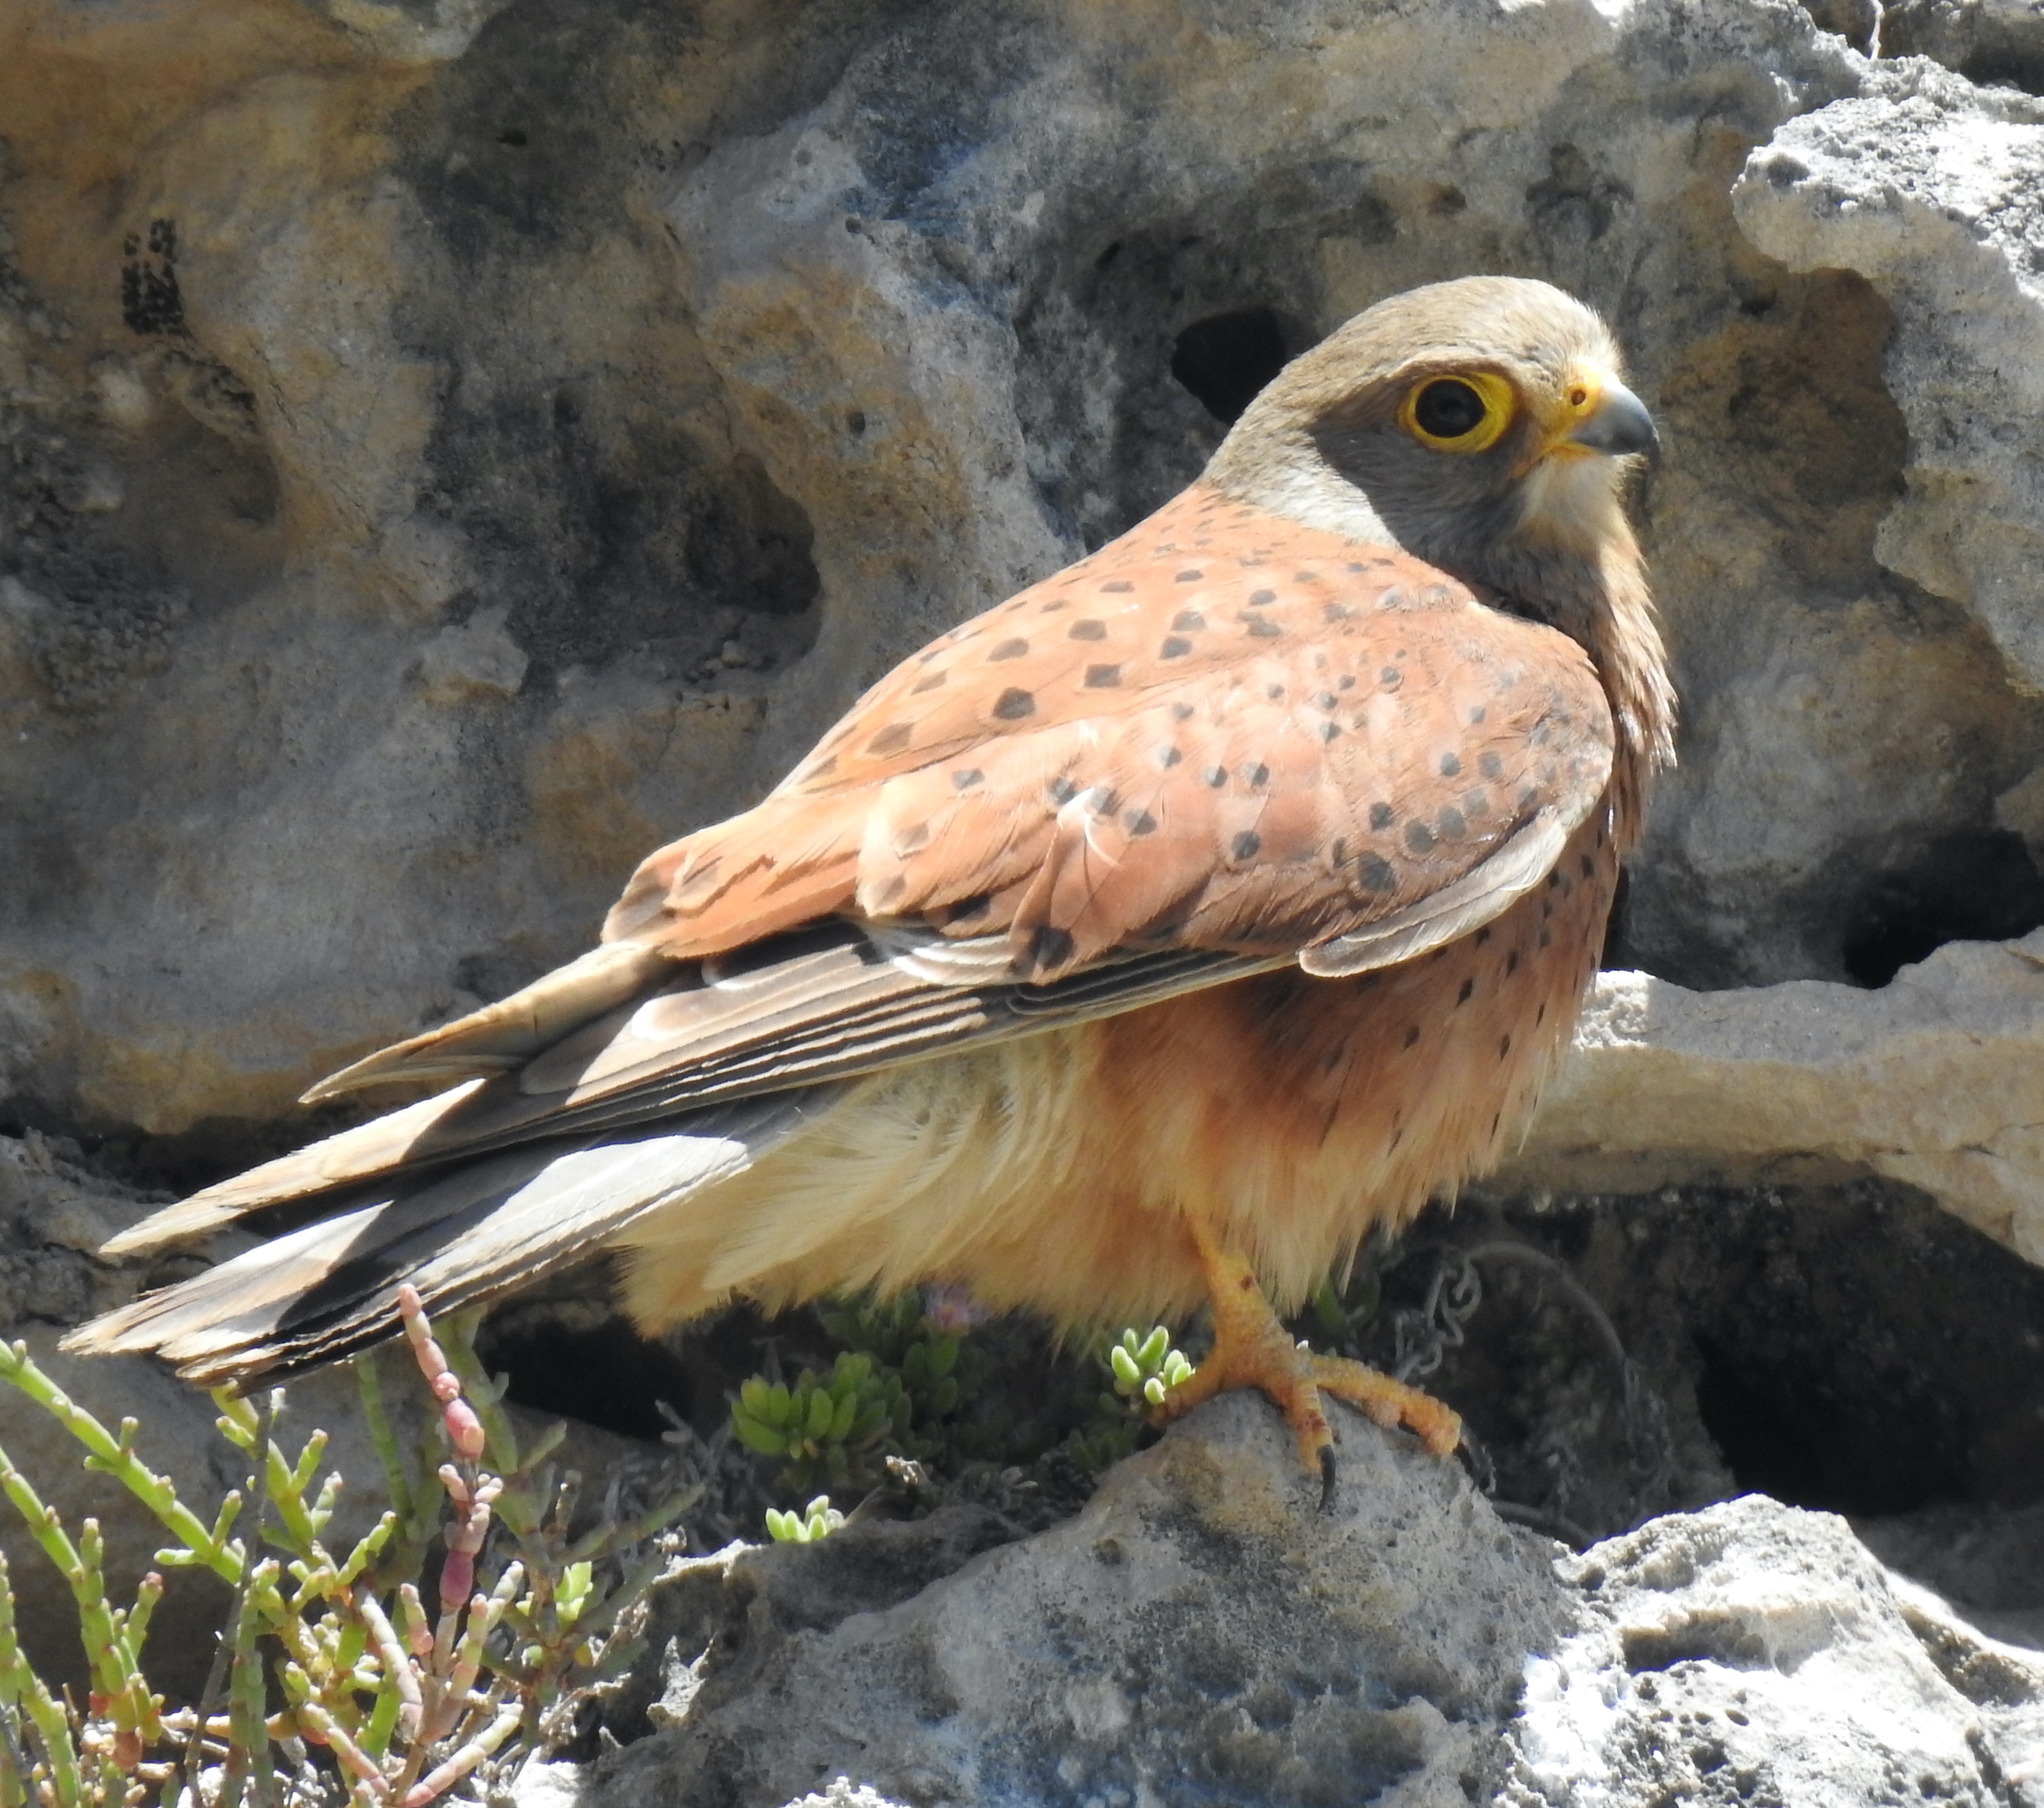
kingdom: Animalia
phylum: Chordata
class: Aves
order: Falconiformes
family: Falconidae
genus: Falco
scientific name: Falco rupicolus
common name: Rock kestrel
